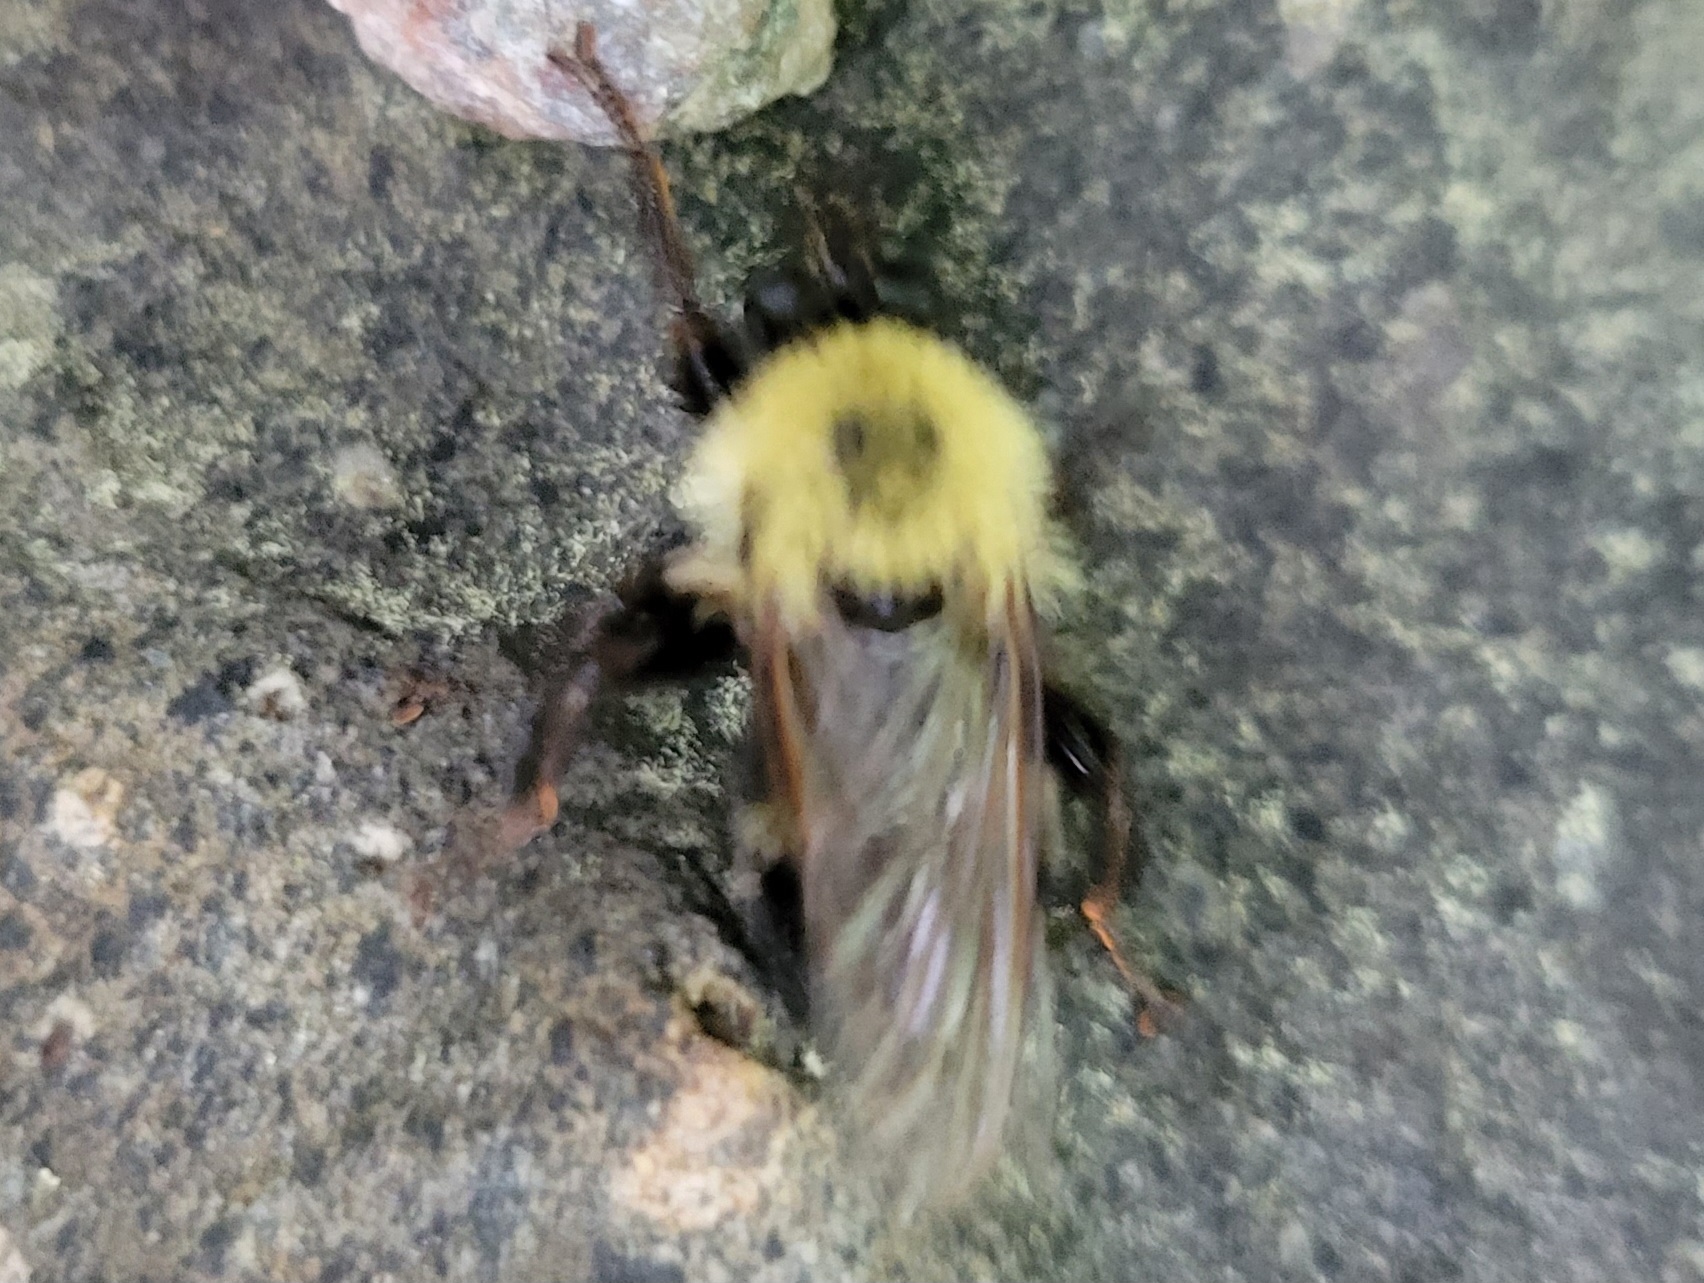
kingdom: Animalia
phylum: Arthropoda
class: Insecta
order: Diptera
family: Asilidae
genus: Laphria
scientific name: Laphria thoracica
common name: Bumble bee mimic robber fly
